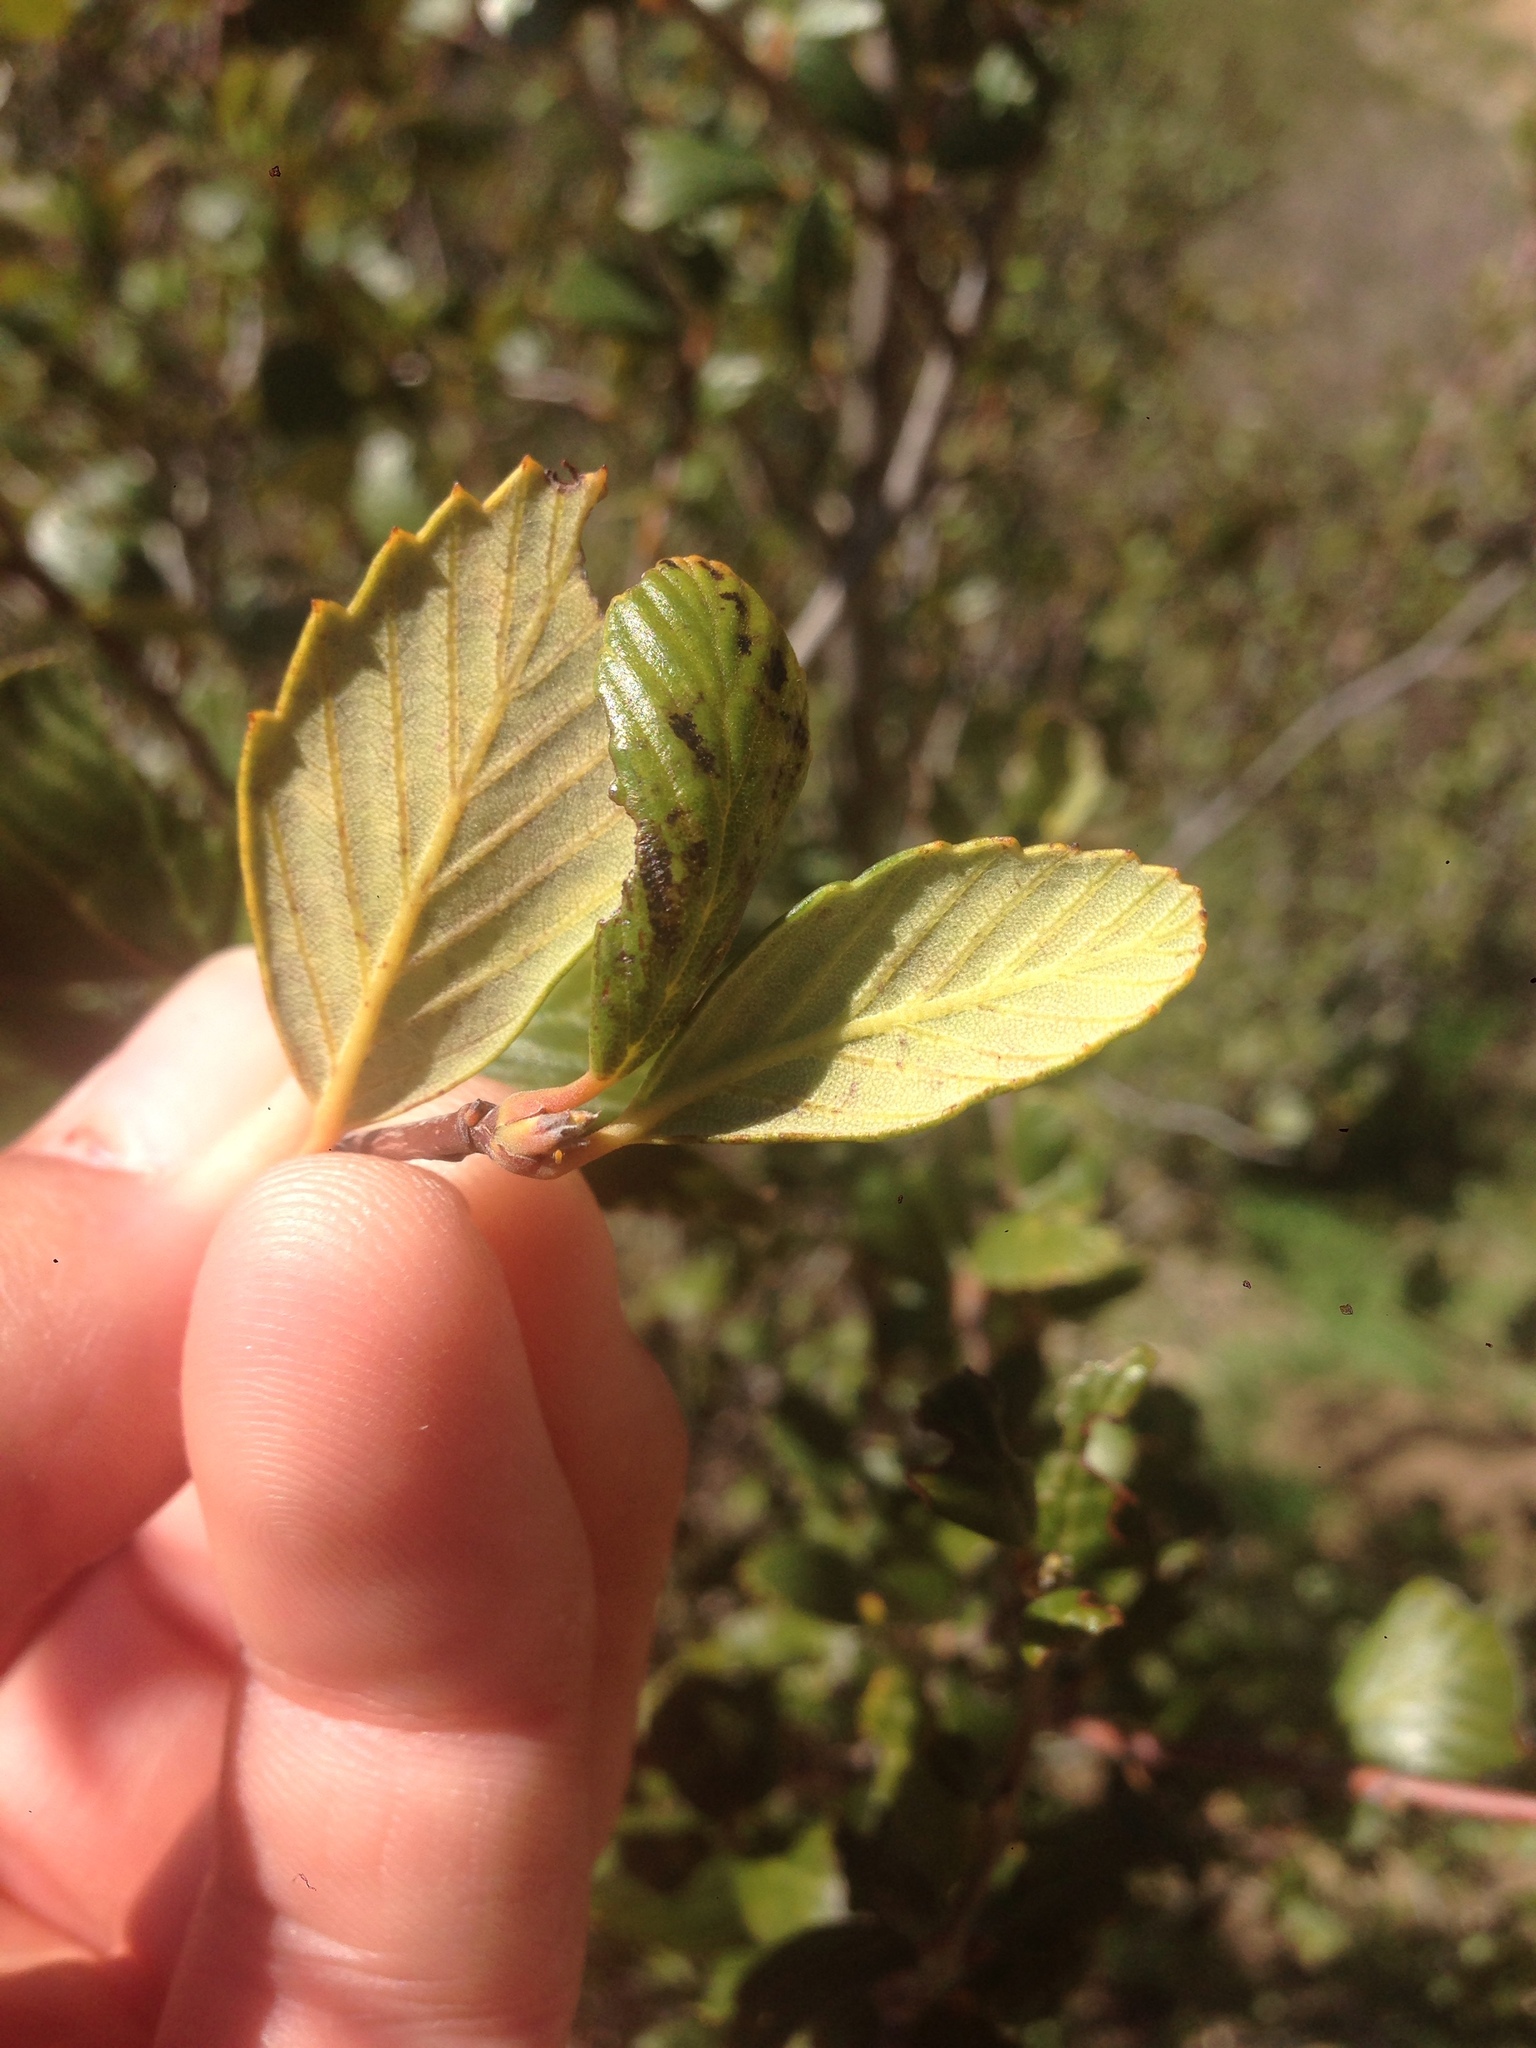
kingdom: Plantae
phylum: Tracheophyta
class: Magnoliopsida
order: Rosales
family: Rosaceae
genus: Cercocarpus
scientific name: Cercocarpus betuloides
